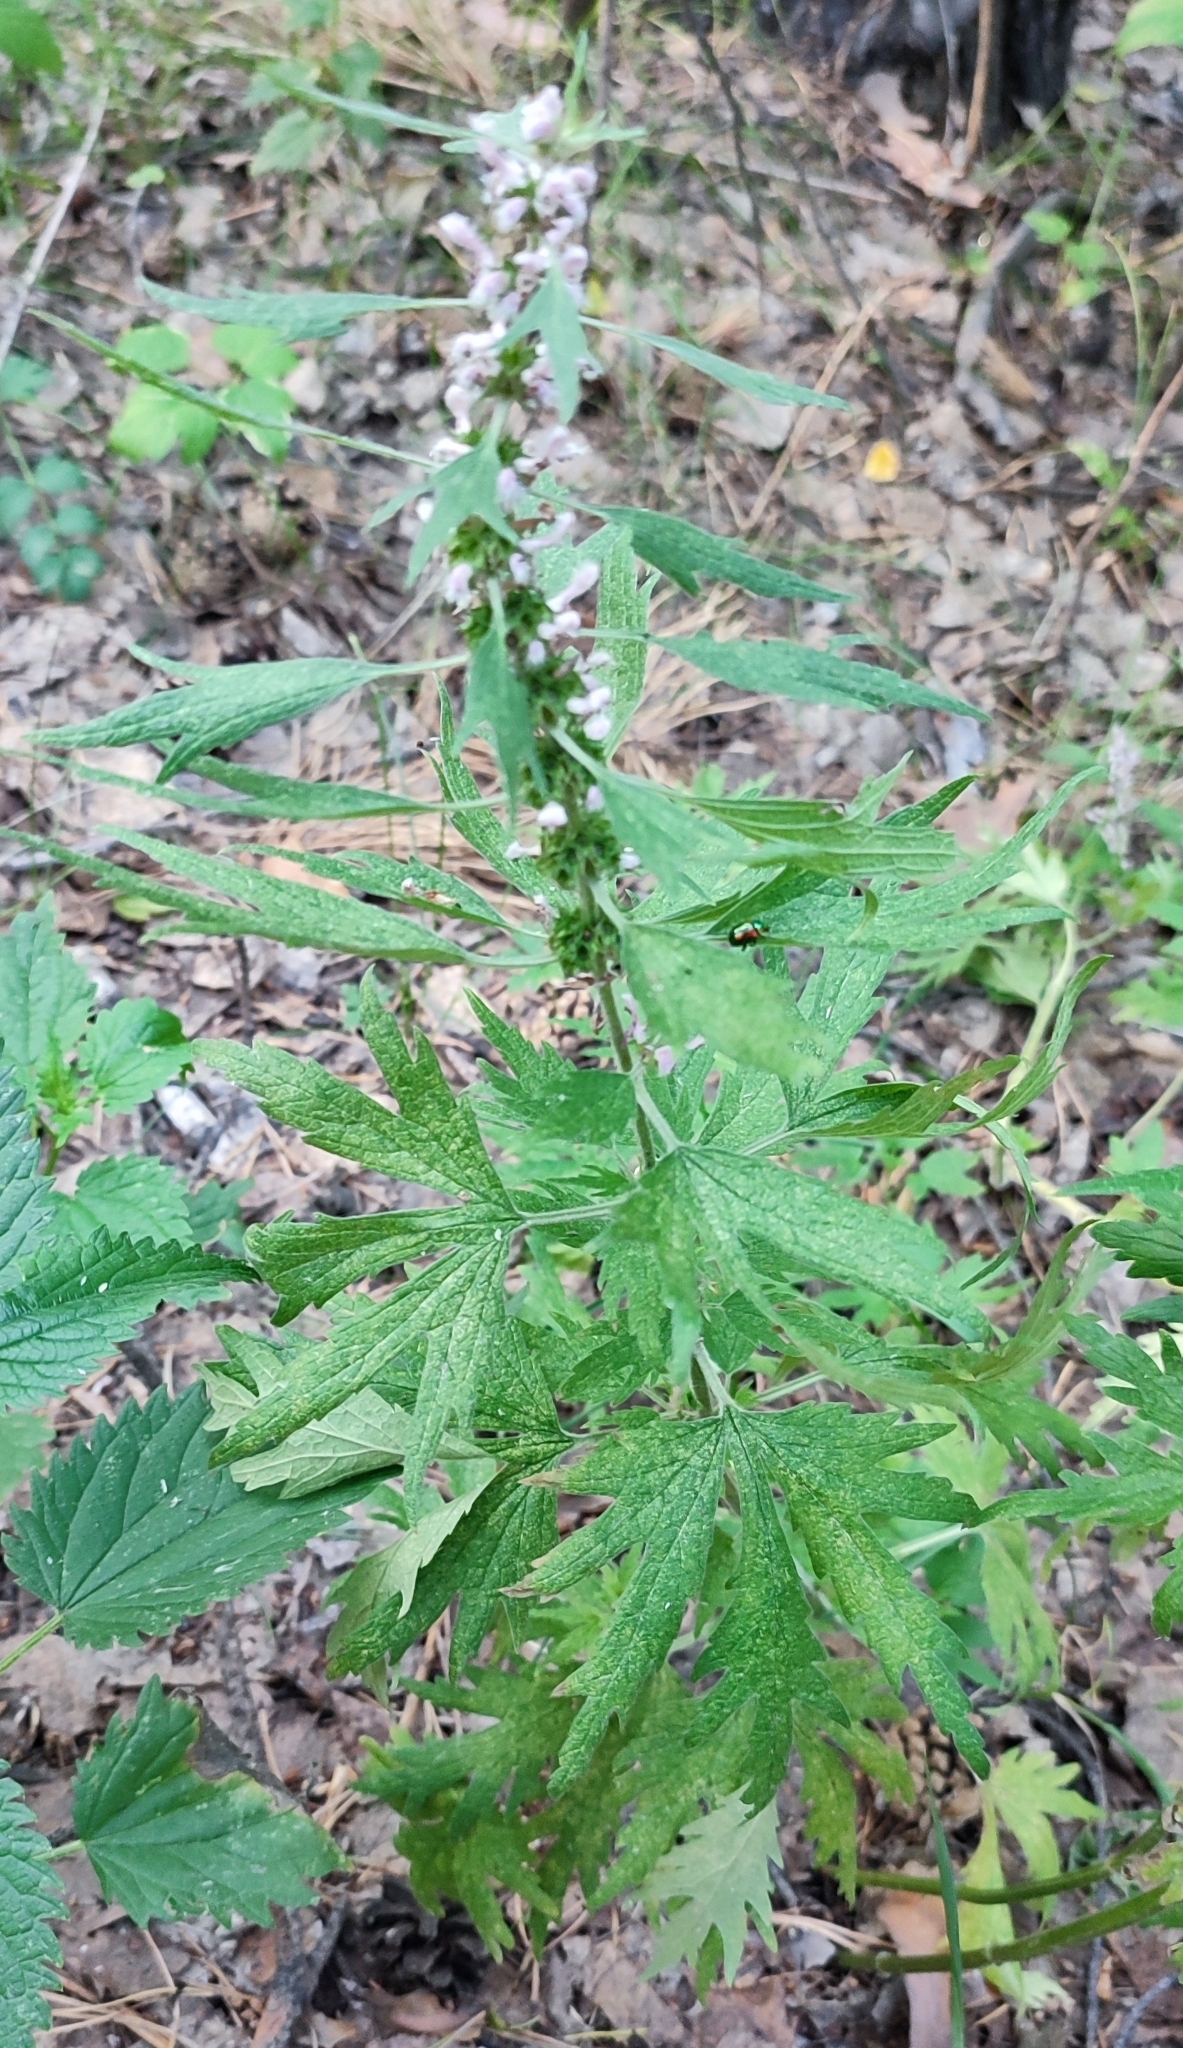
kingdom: Plantae
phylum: Tracheophyta
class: Magnoliopsida
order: Lamiales
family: Lamiaceae
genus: Leonurus
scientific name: Leonurus quinquelobatus
